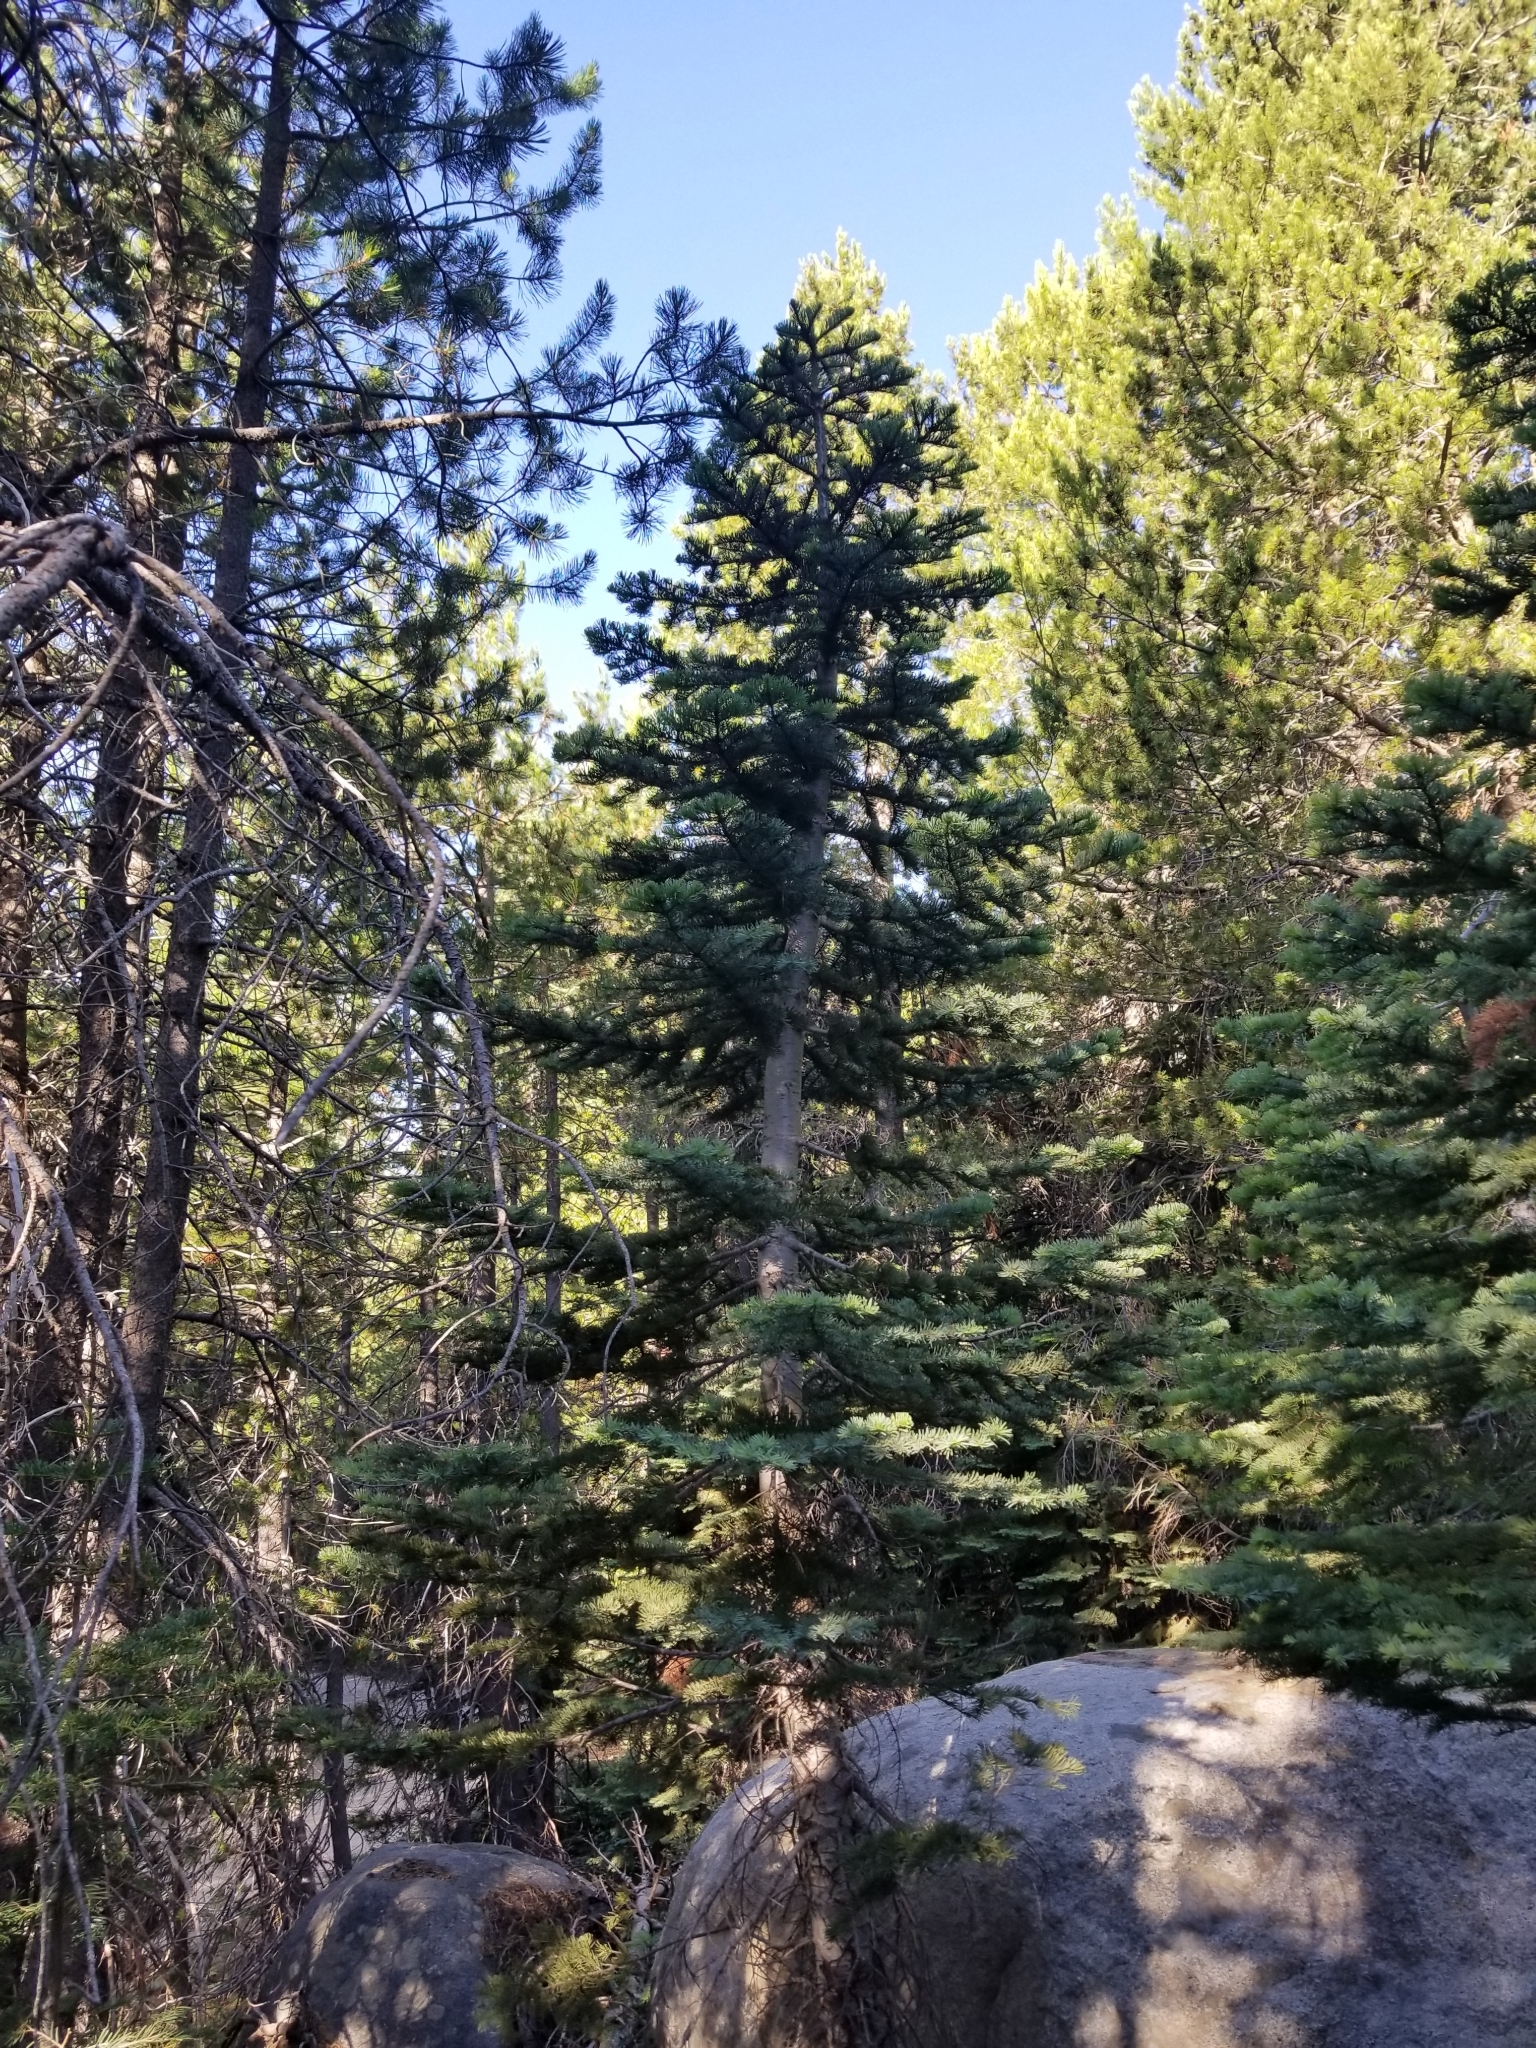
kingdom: Plantae
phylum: Tracheophyta
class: Pinopsida
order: Pinales
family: Pinaceae
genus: Abies
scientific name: Abies magnifica bis
